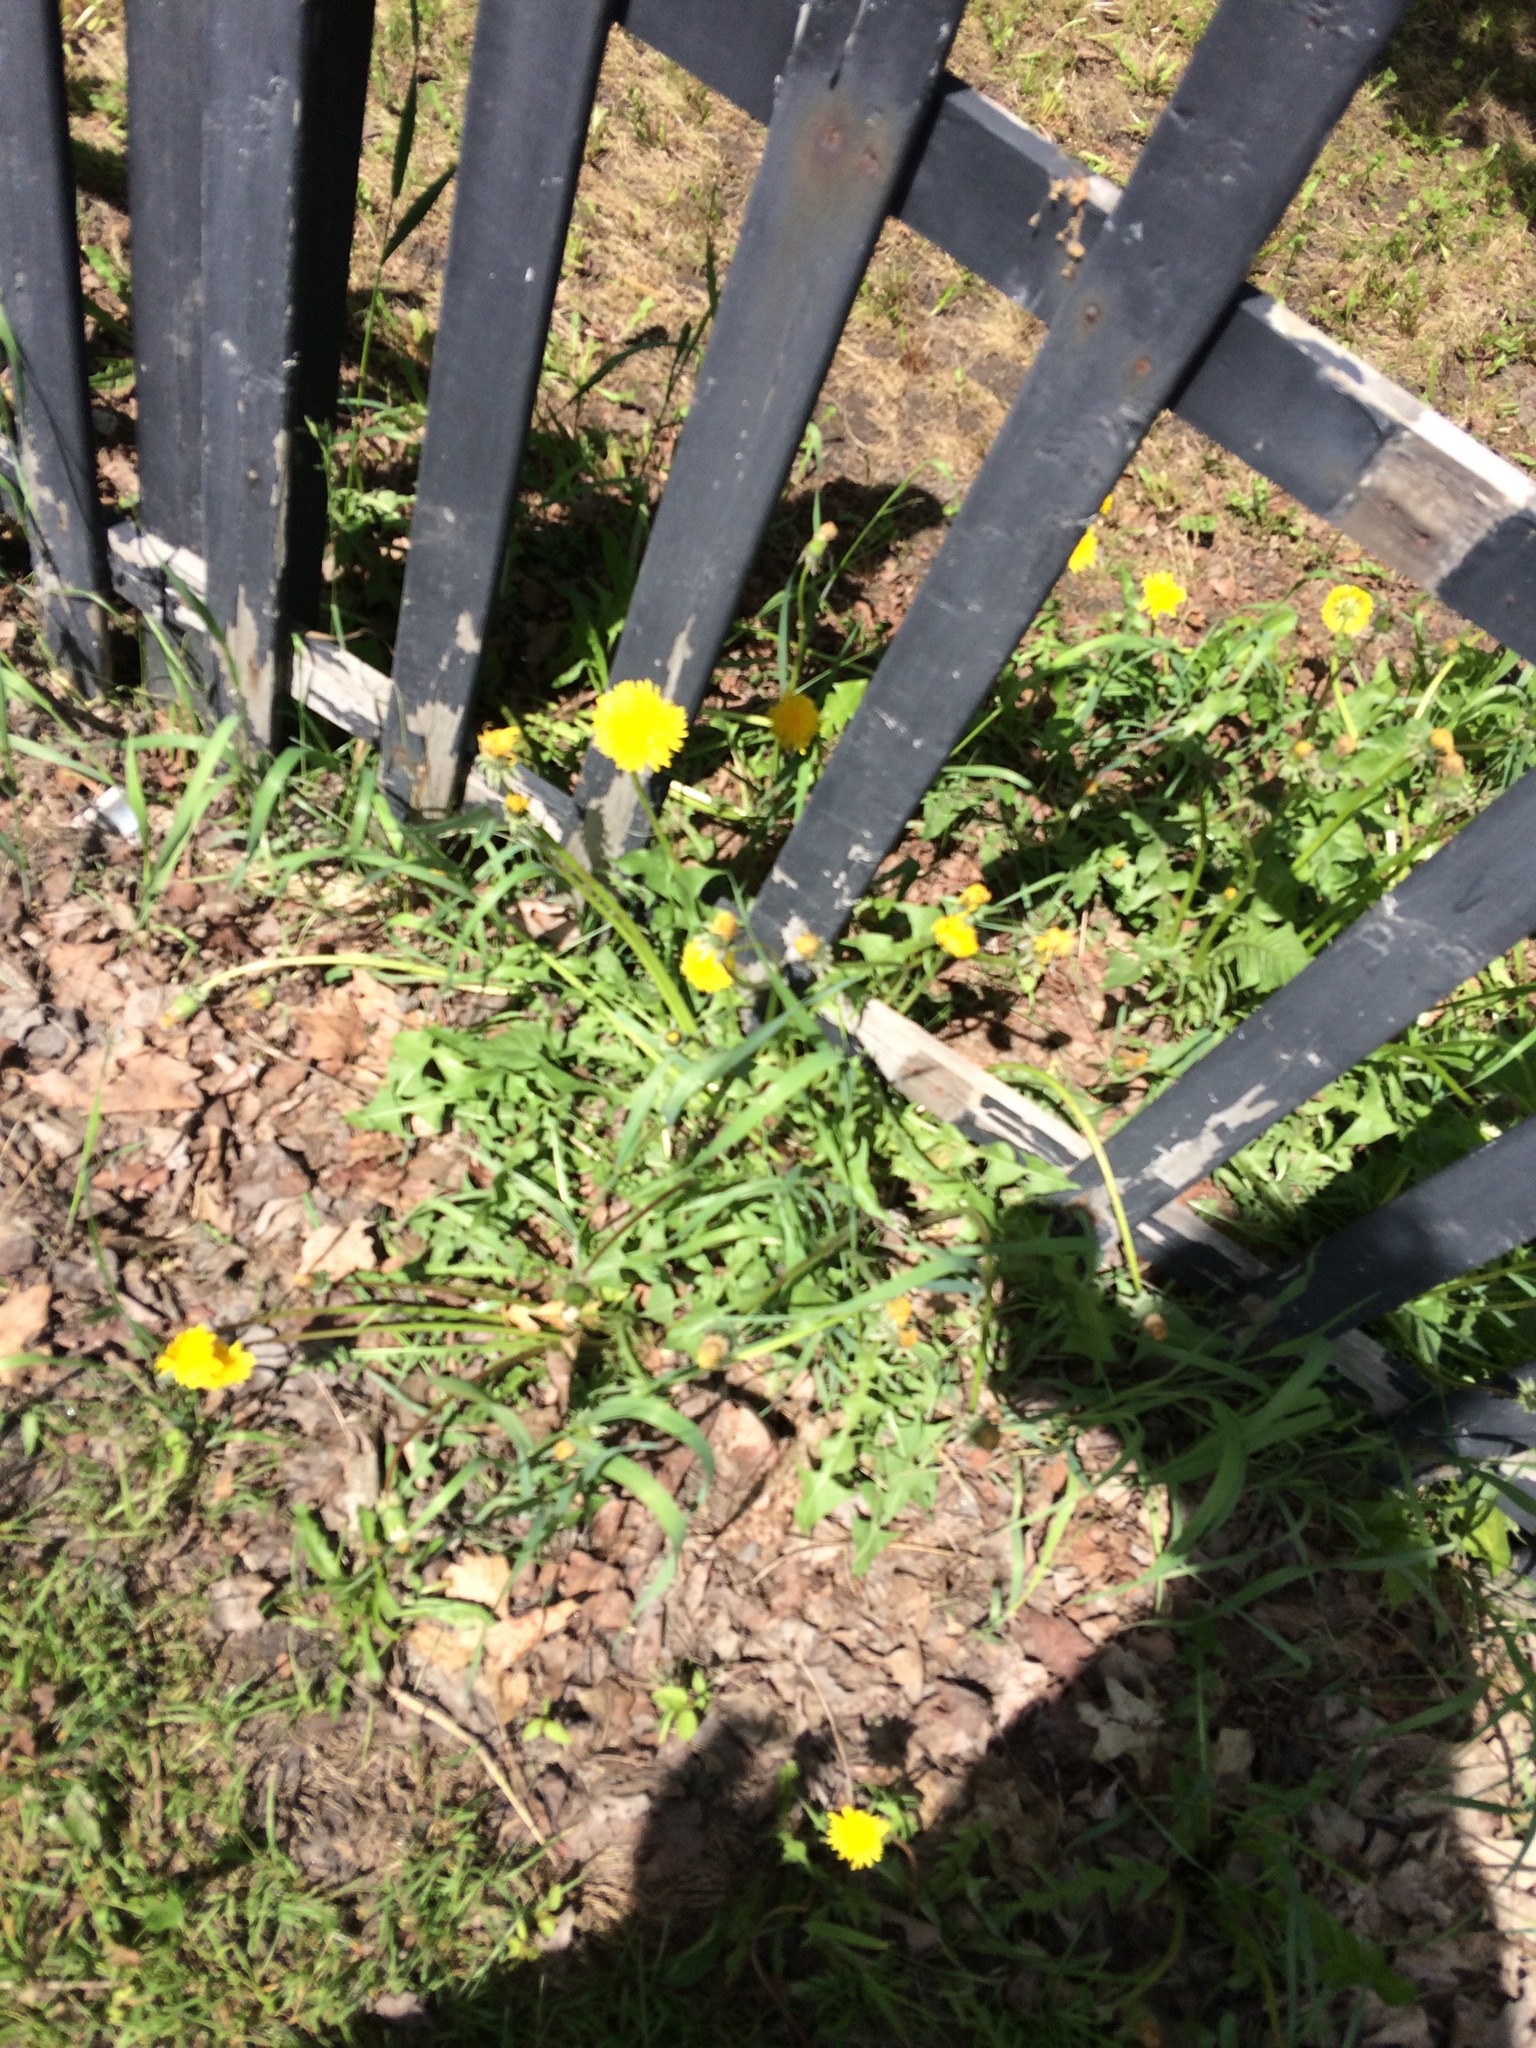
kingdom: Plantae
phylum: Tracheophyta
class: Magnoliopsida
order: Asterales
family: Asteraceae
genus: Taraxacum
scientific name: Taraxacum officinale
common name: Common dandelion
